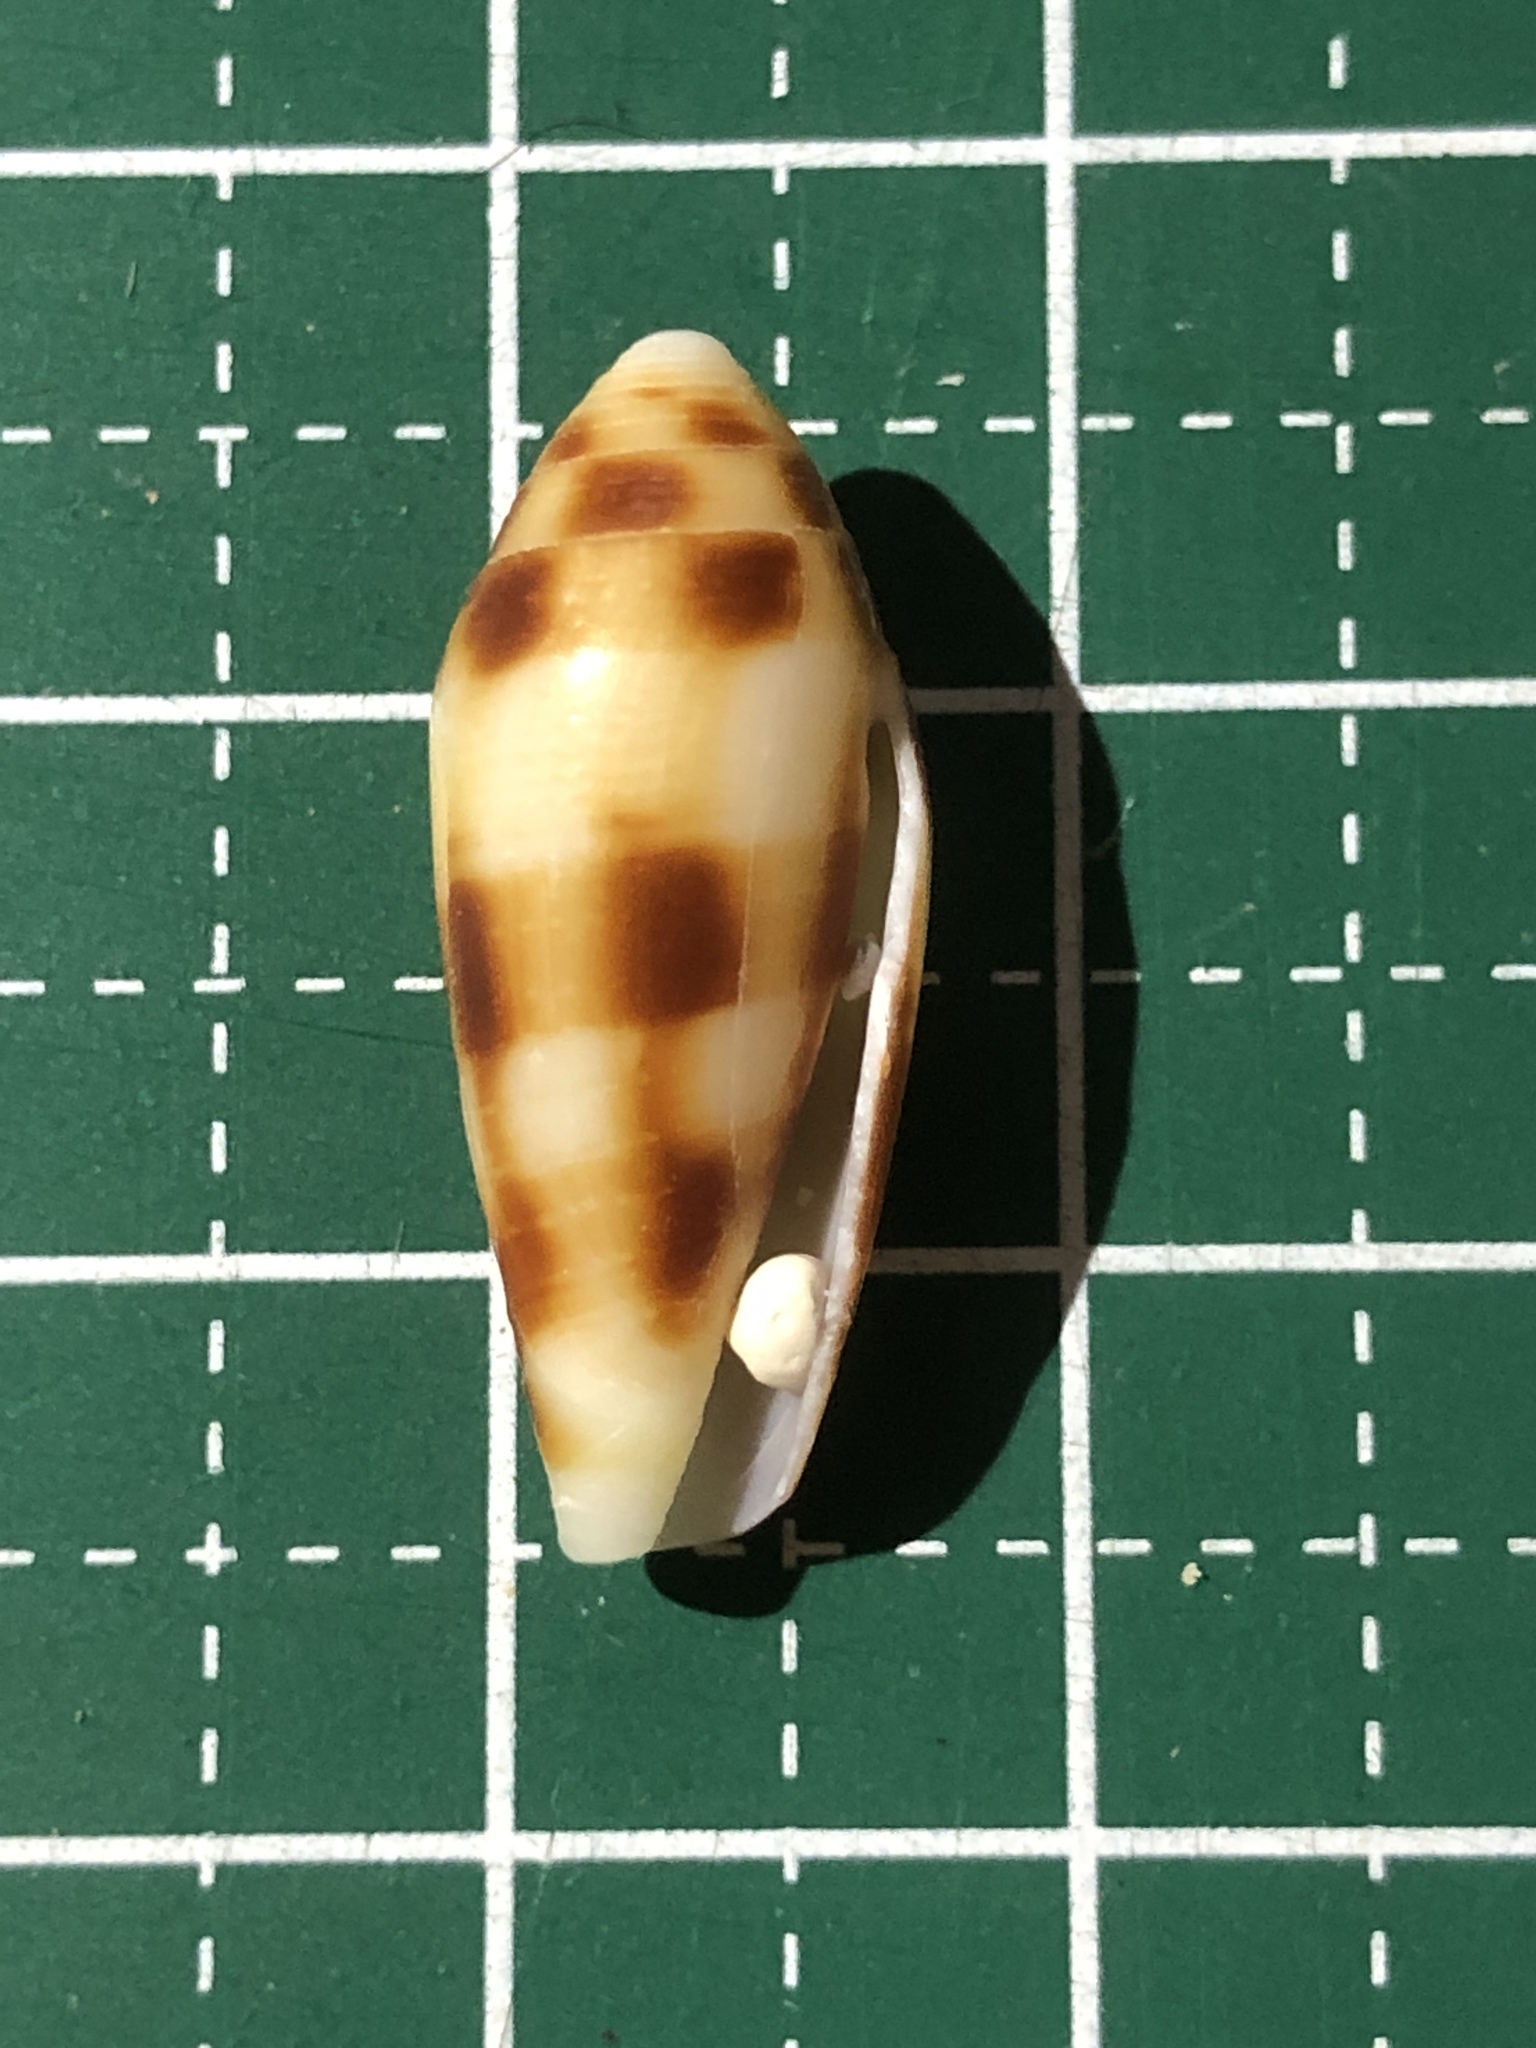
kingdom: Animalia
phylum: Mollusca
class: Gastropoda
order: Neogastropoda
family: Conidae
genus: Conus
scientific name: Conus mitratus
